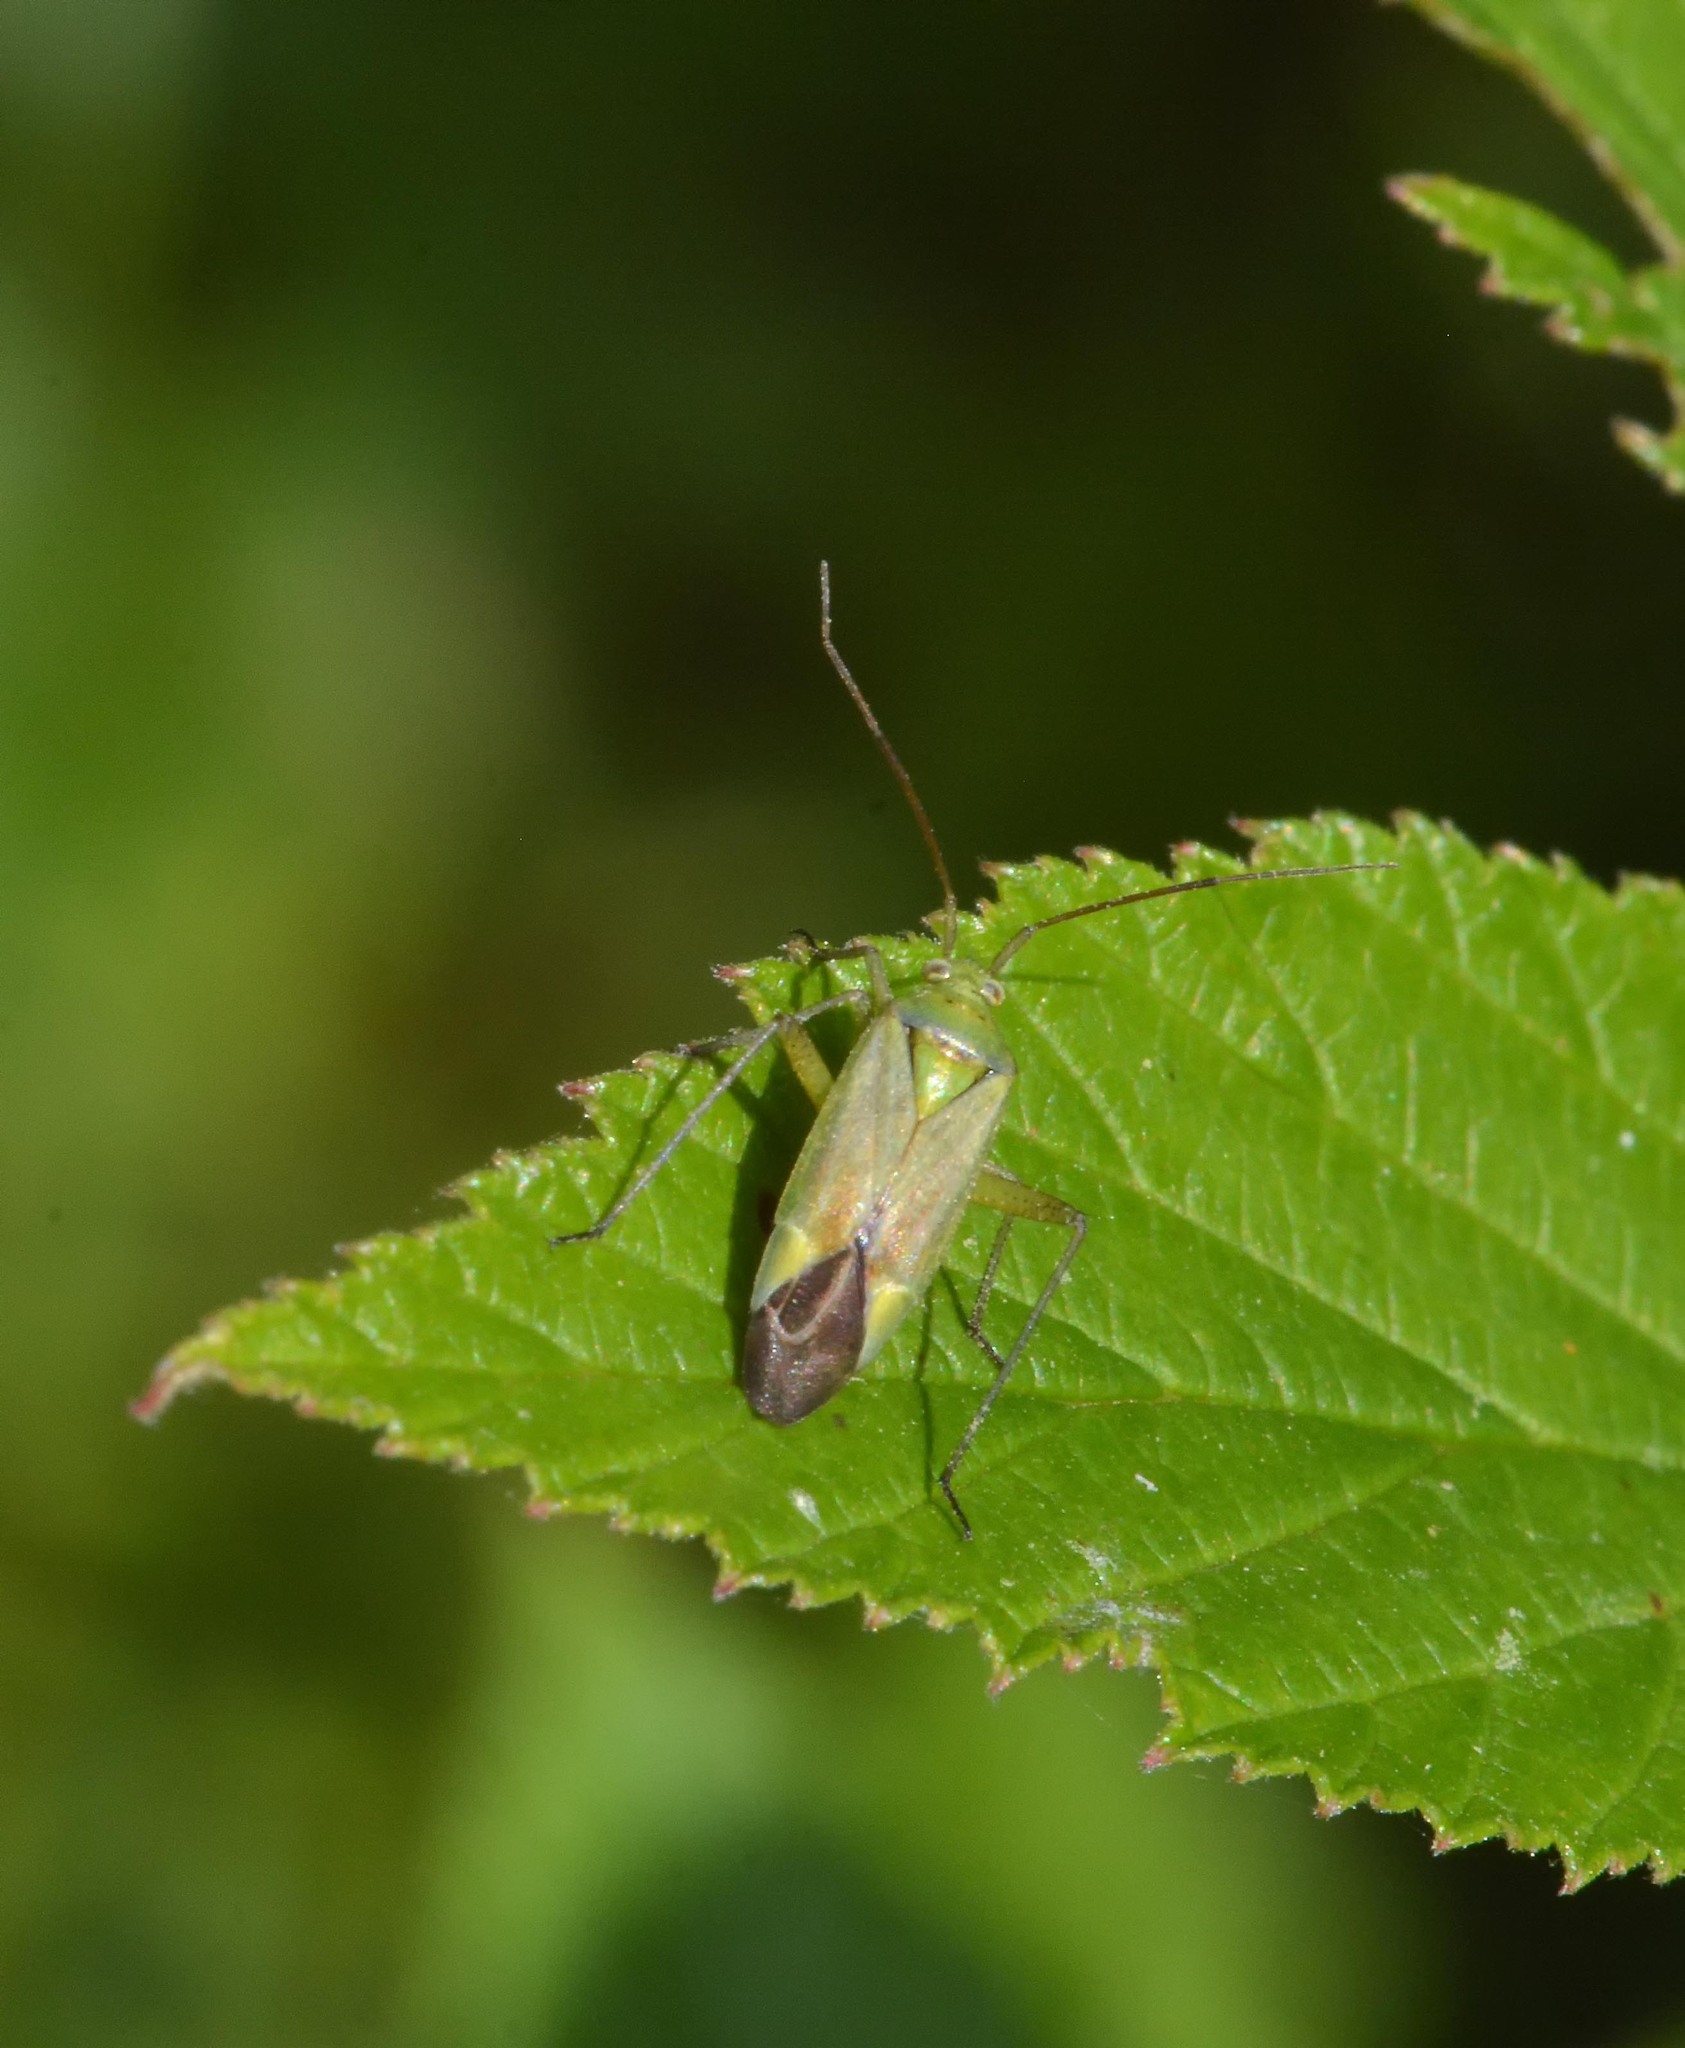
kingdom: Animalia
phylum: Arthropoda
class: Insecta
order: Hemiptera
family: Miridae
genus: Closterotomus
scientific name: Closterotomus norvegicus
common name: Plant bug
